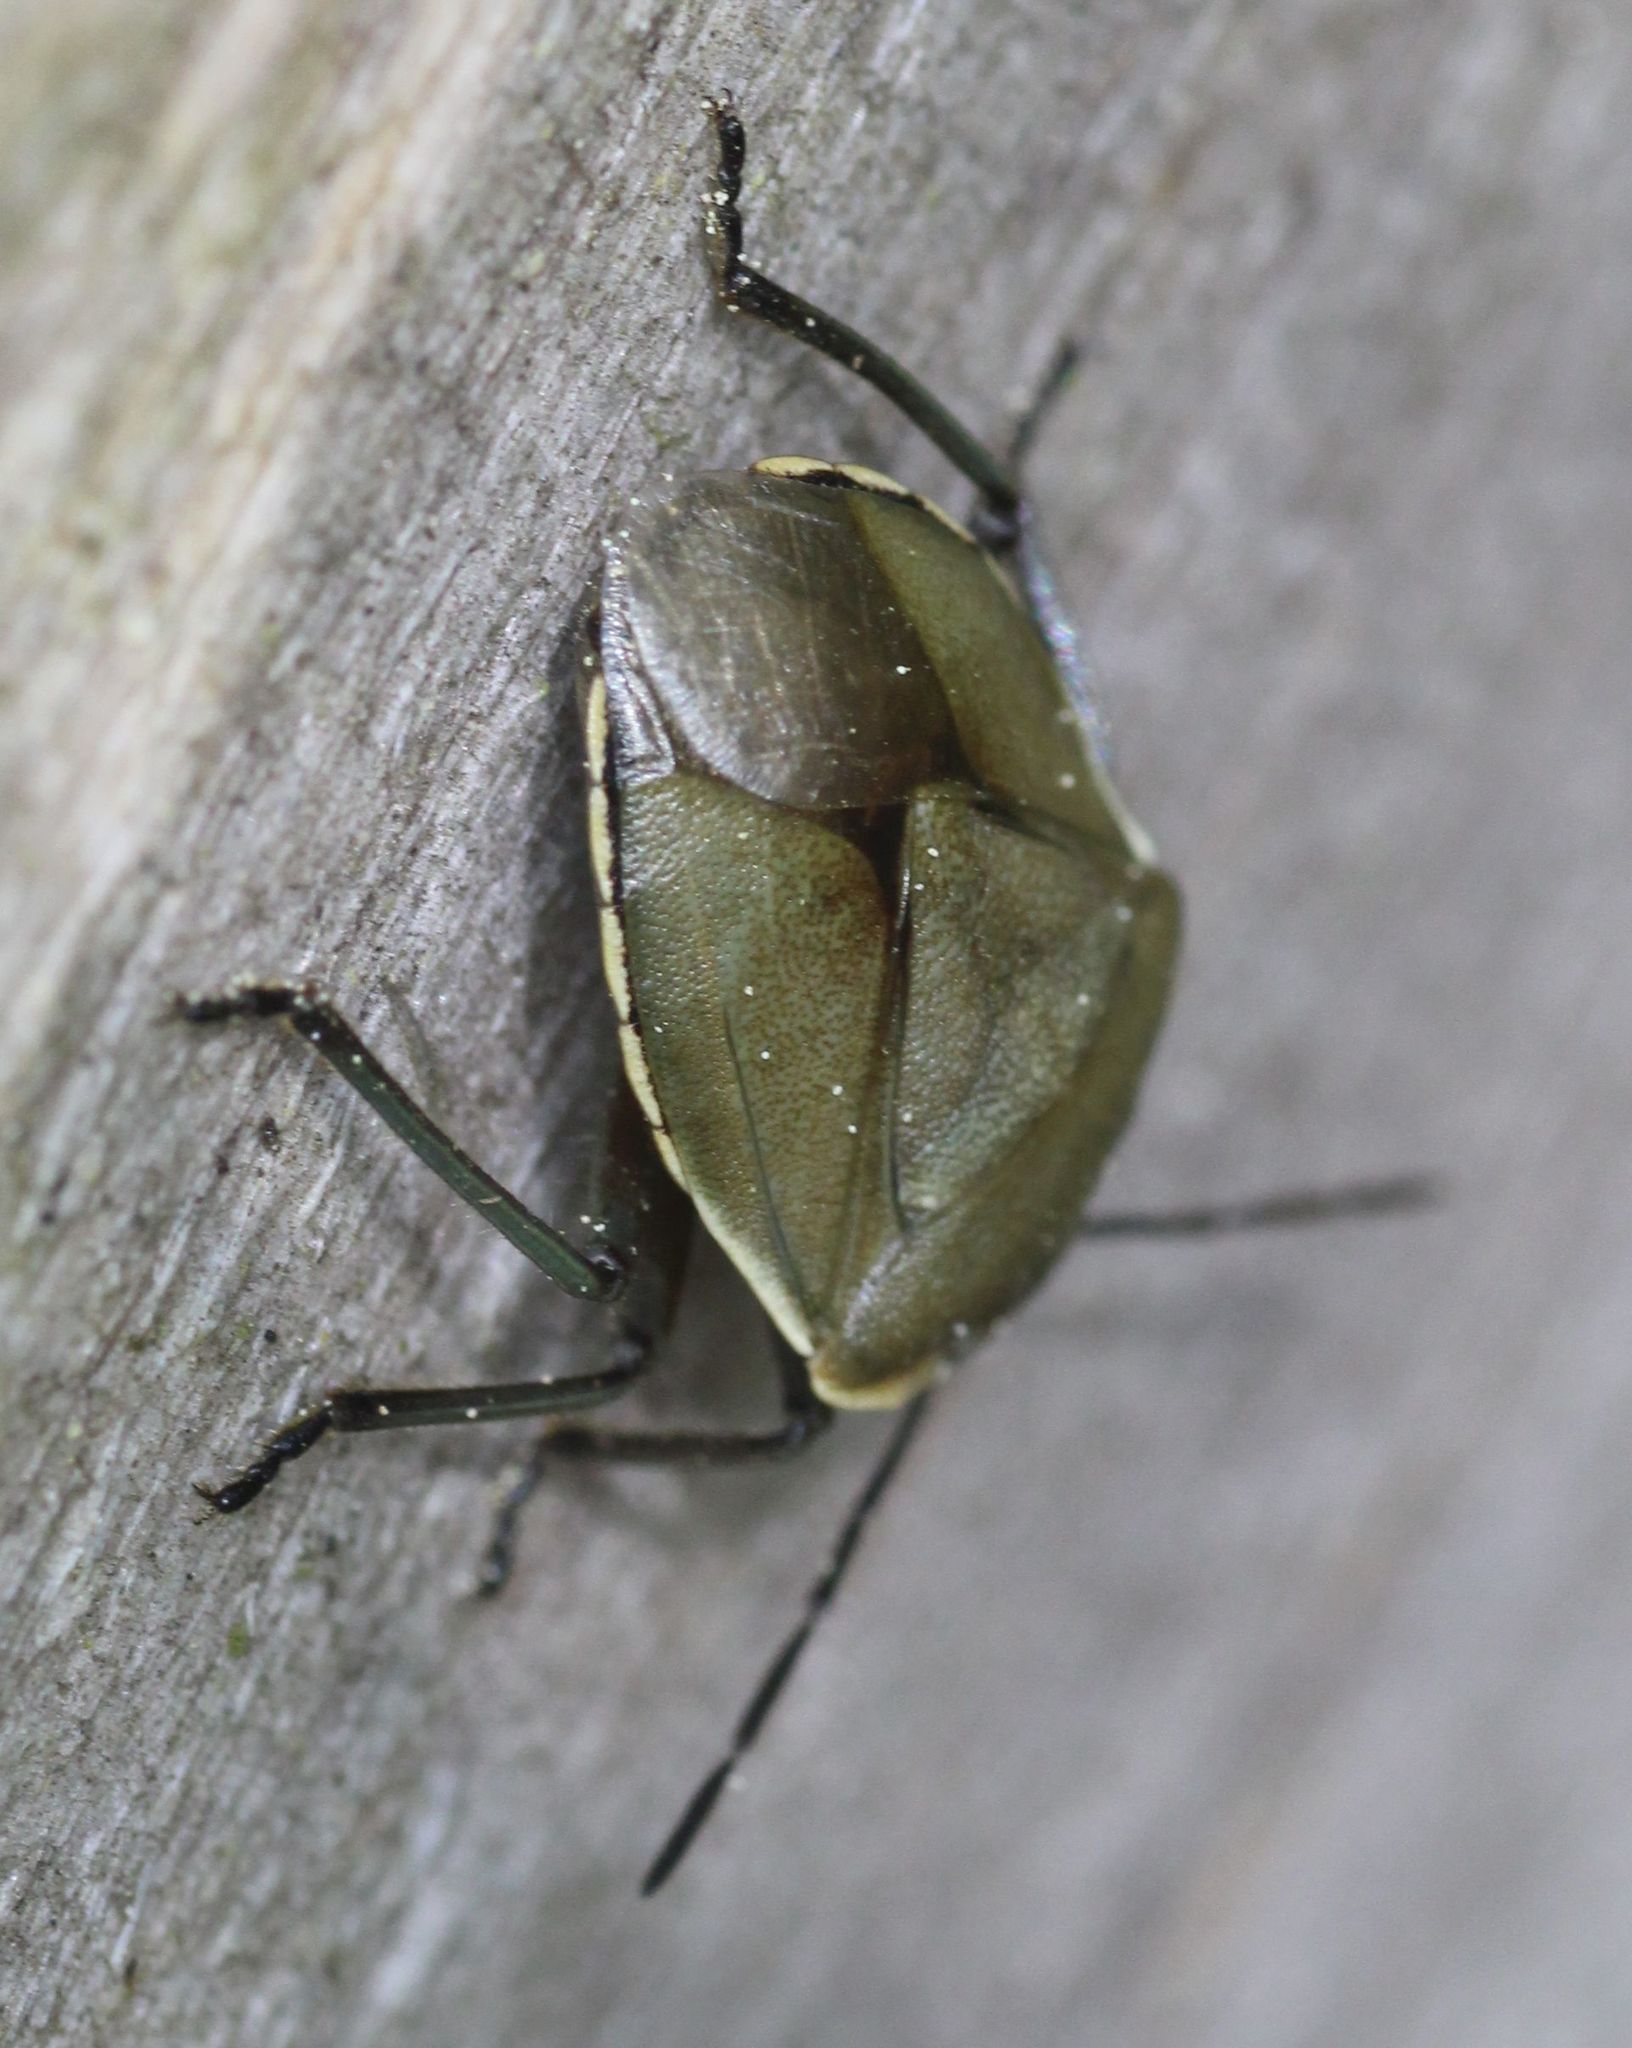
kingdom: Animalia
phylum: Arthropoda
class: Insecta
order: Hemiptera
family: Pentatomidae
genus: Chlorochroa
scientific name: Chlorochroa pinicola
